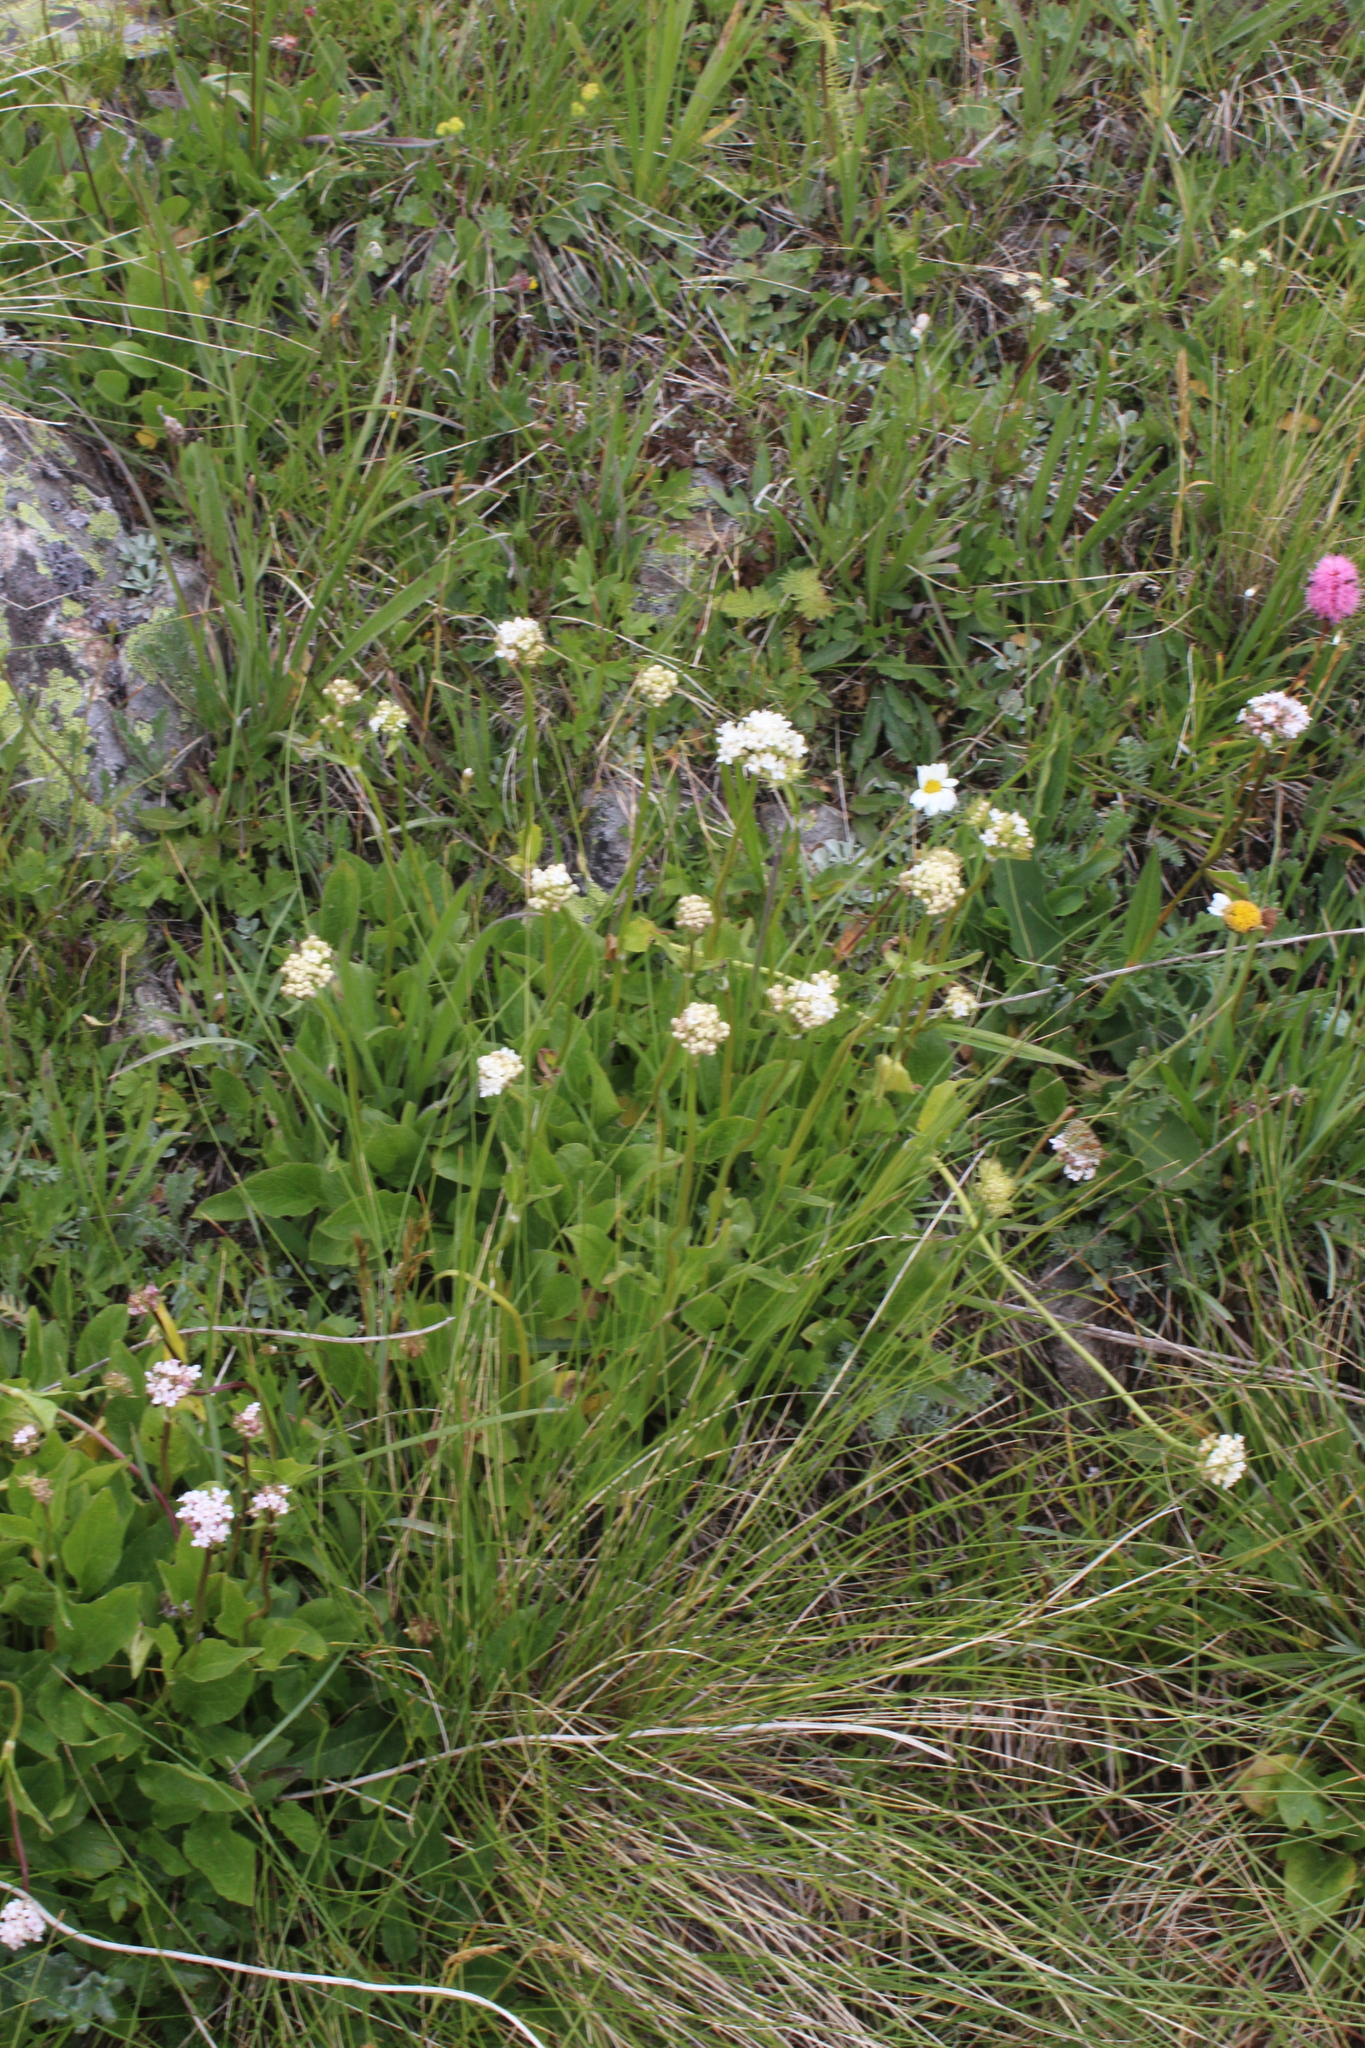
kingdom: Plantae
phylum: Tracheophyta
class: Magnoliopsida
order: Dipsacales
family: Caprifoliaceae
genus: Valeriana
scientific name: Valeriana alpestris
